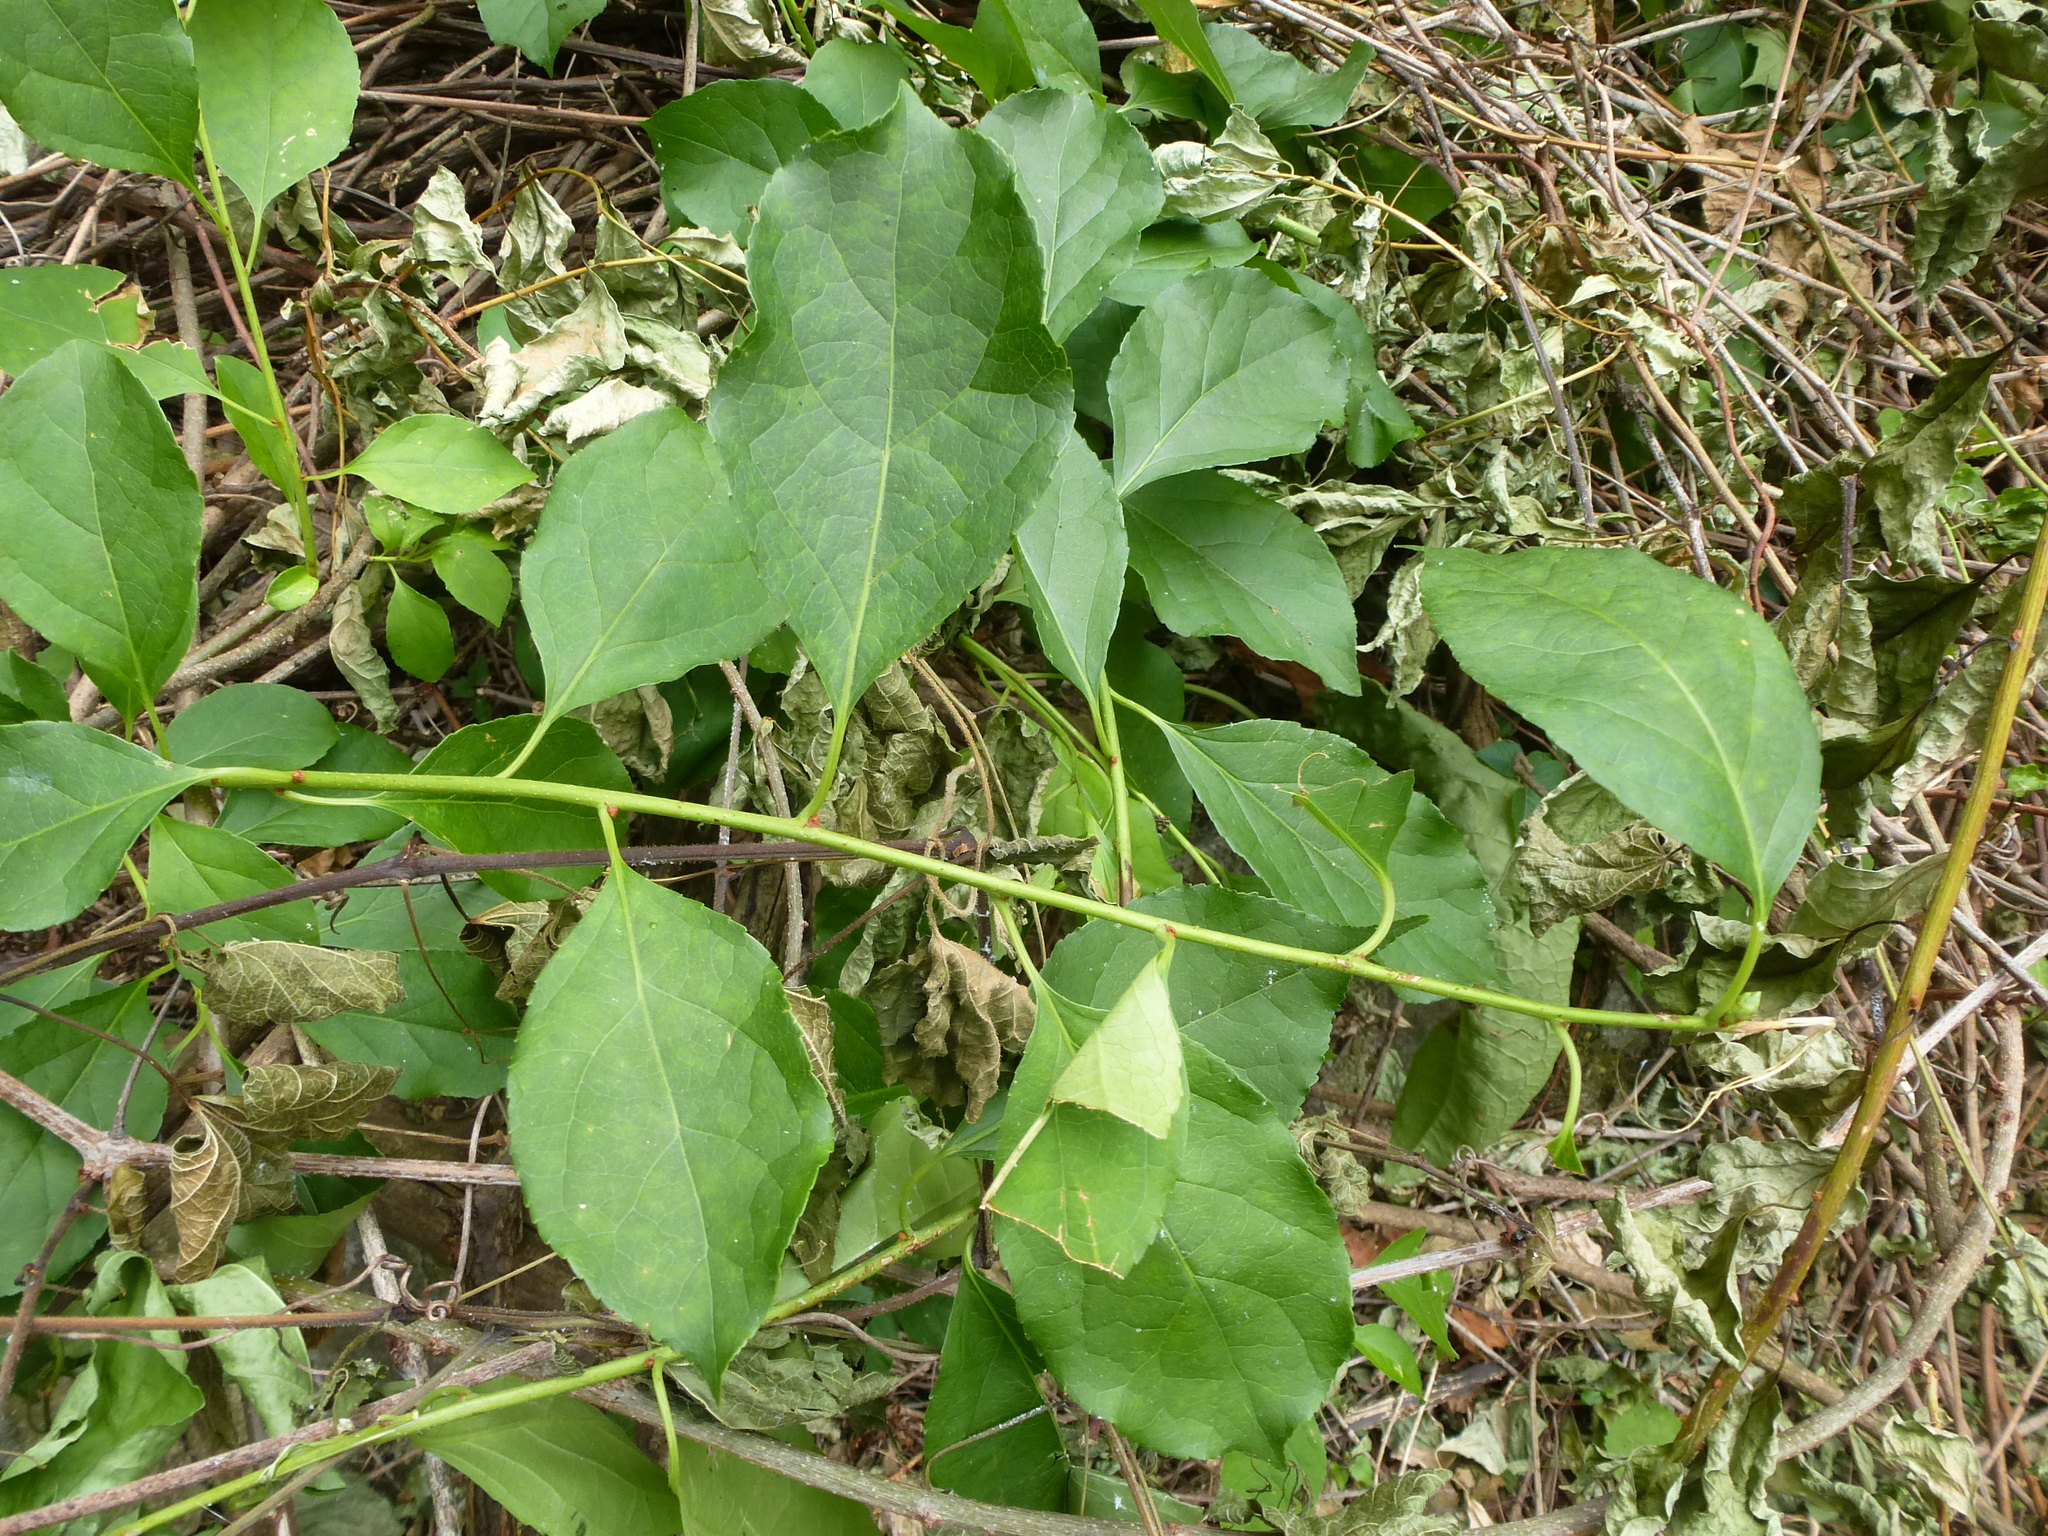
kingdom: Plantae
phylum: Tracheophyta
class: Magnoliopsida
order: Celastrales
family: Celastraceae
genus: Celastrus
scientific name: Celastrus orbiculatus
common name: Oriental bittersweet
